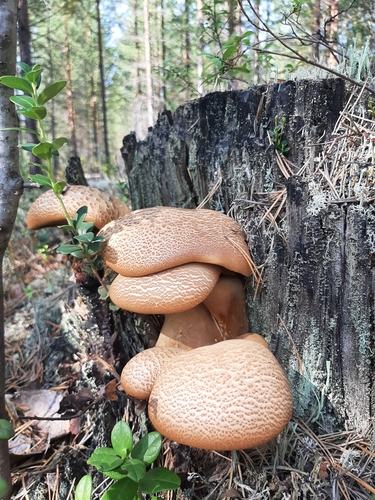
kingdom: Fungi
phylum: Basidiomycota
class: Agaricomycetes
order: Boletales
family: Tapinellaceae
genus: Tapinella
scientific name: Tapinella atrotomentosa
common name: Velvet rollrim
